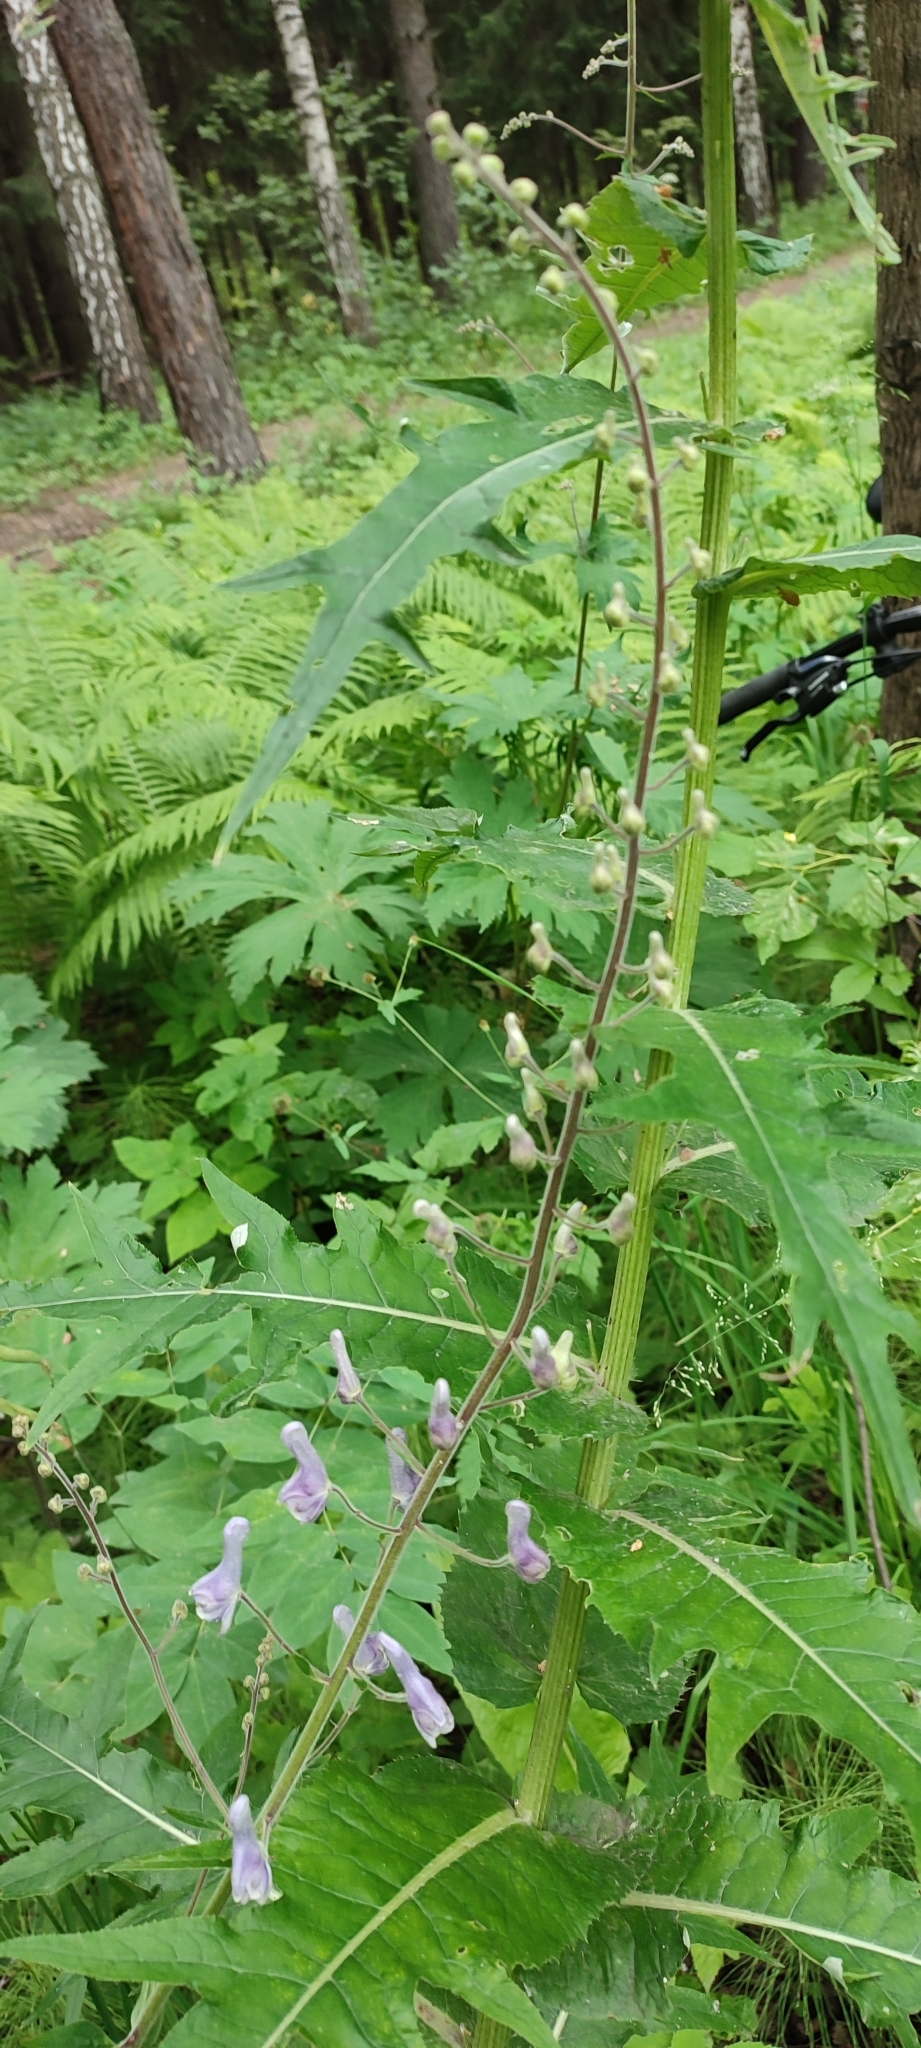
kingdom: Plantae
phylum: Tracheophyta
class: Magnoliopsida
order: Ranunculales
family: Ranunculaceae
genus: Aconitum
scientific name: Aconitum septentrionale
